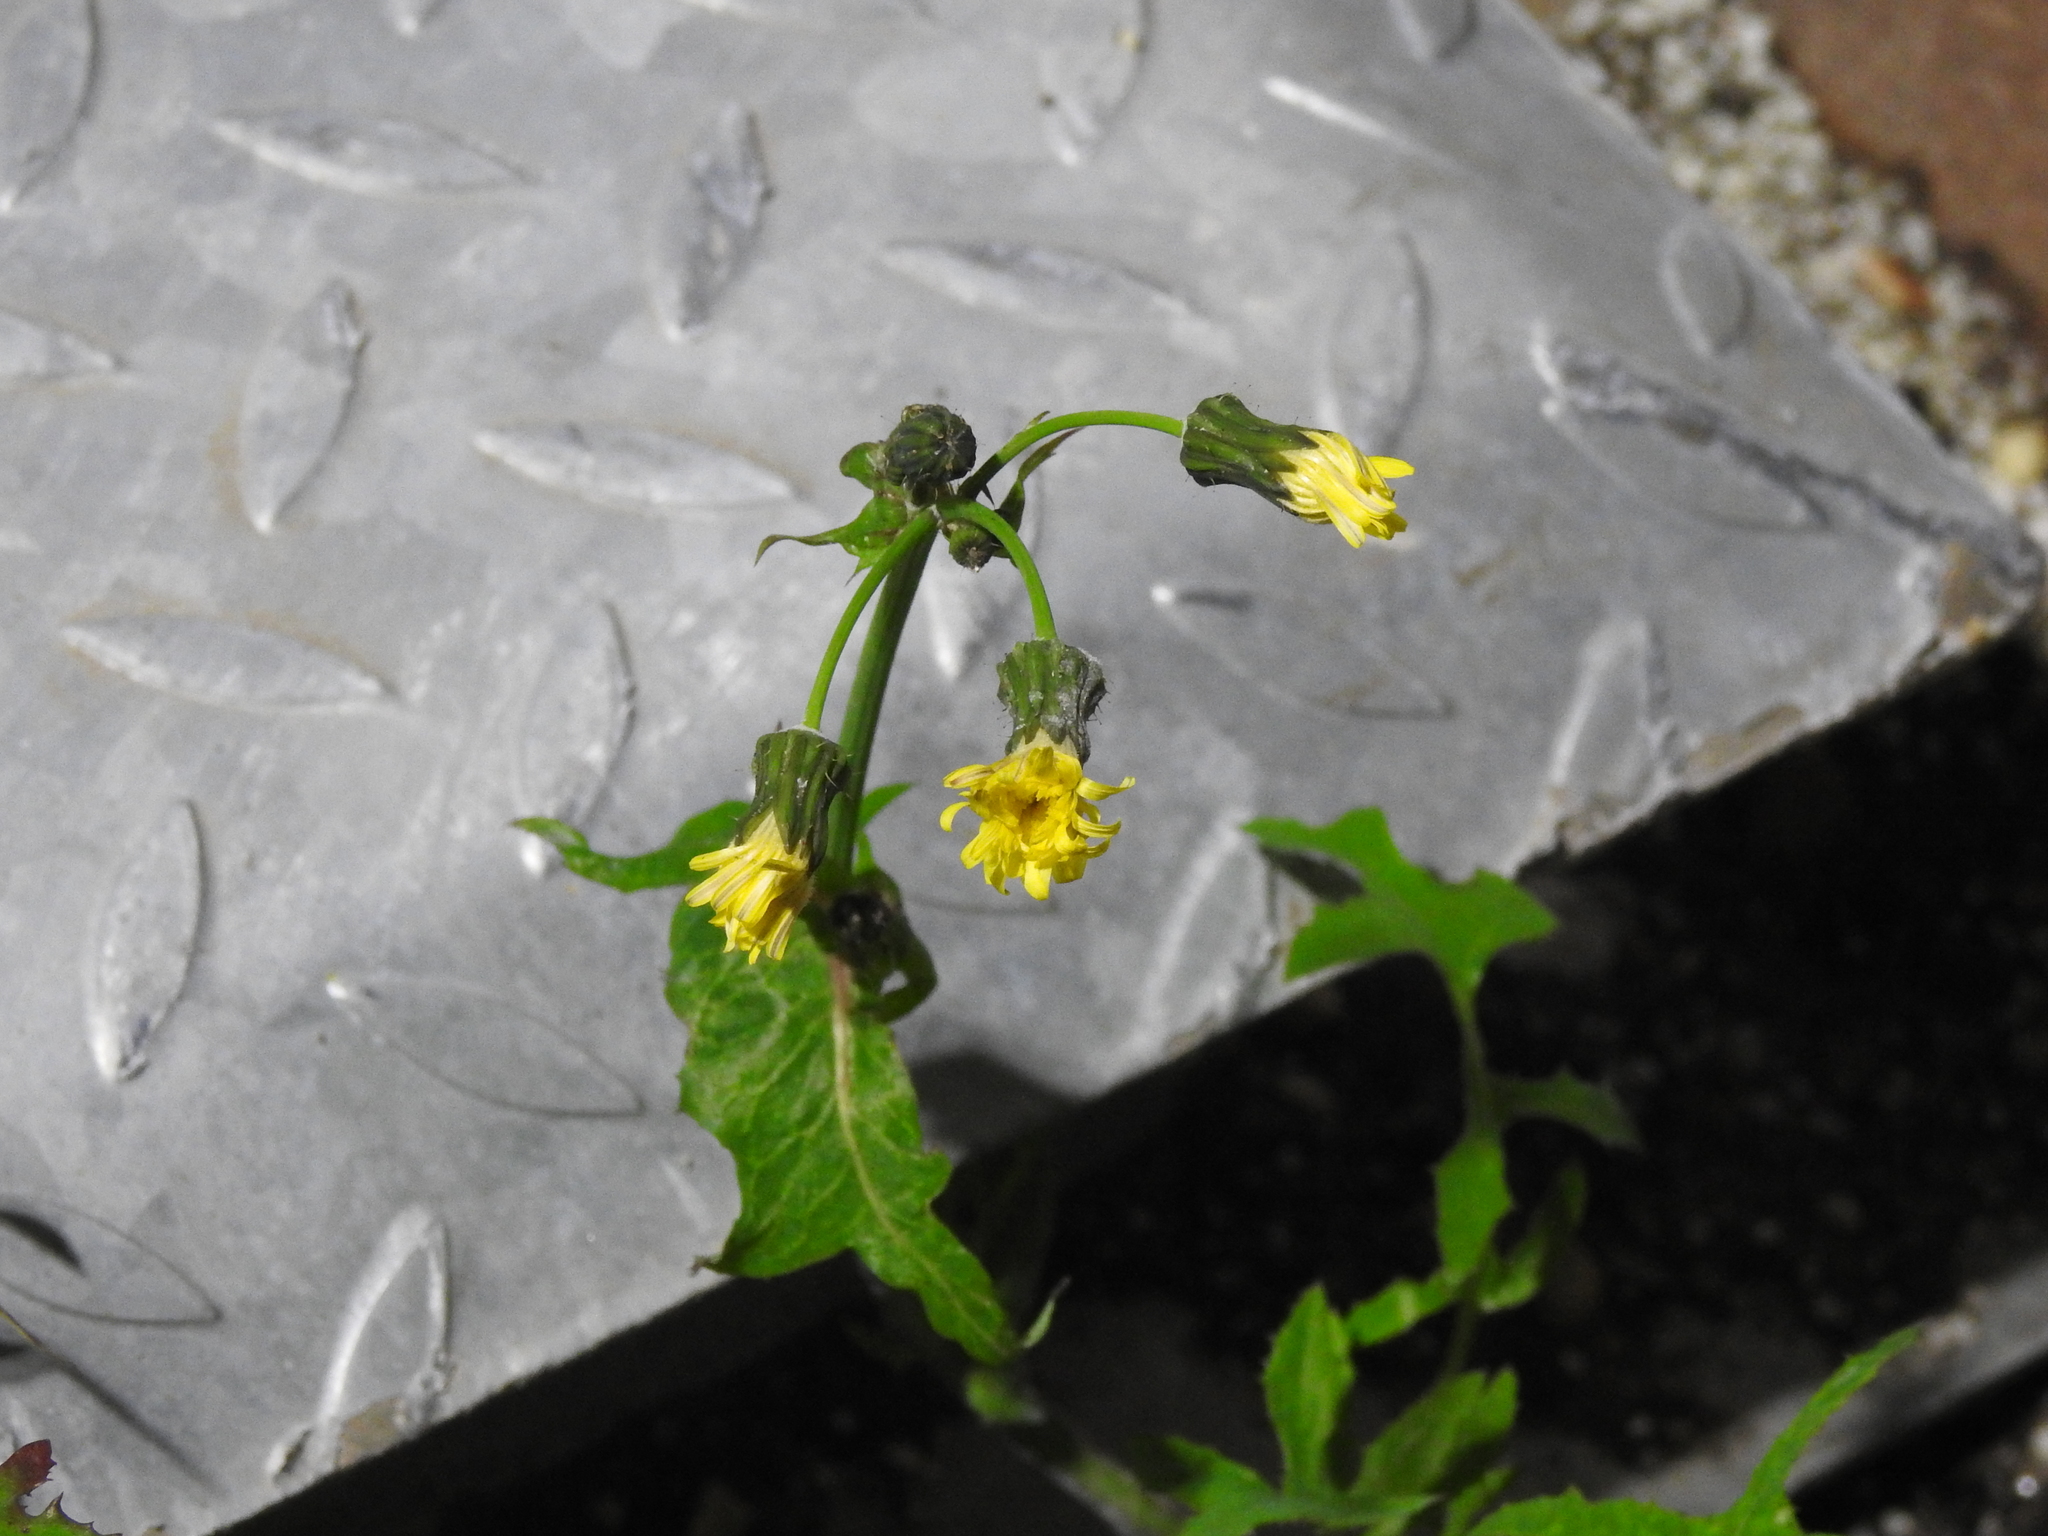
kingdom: Plantae
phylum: Tracheophyta
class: Magnoliopsida
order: Asterales
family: Asteraceae
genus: Sonchus
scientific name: Sonchus oleraceus
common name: Common sowthistle
